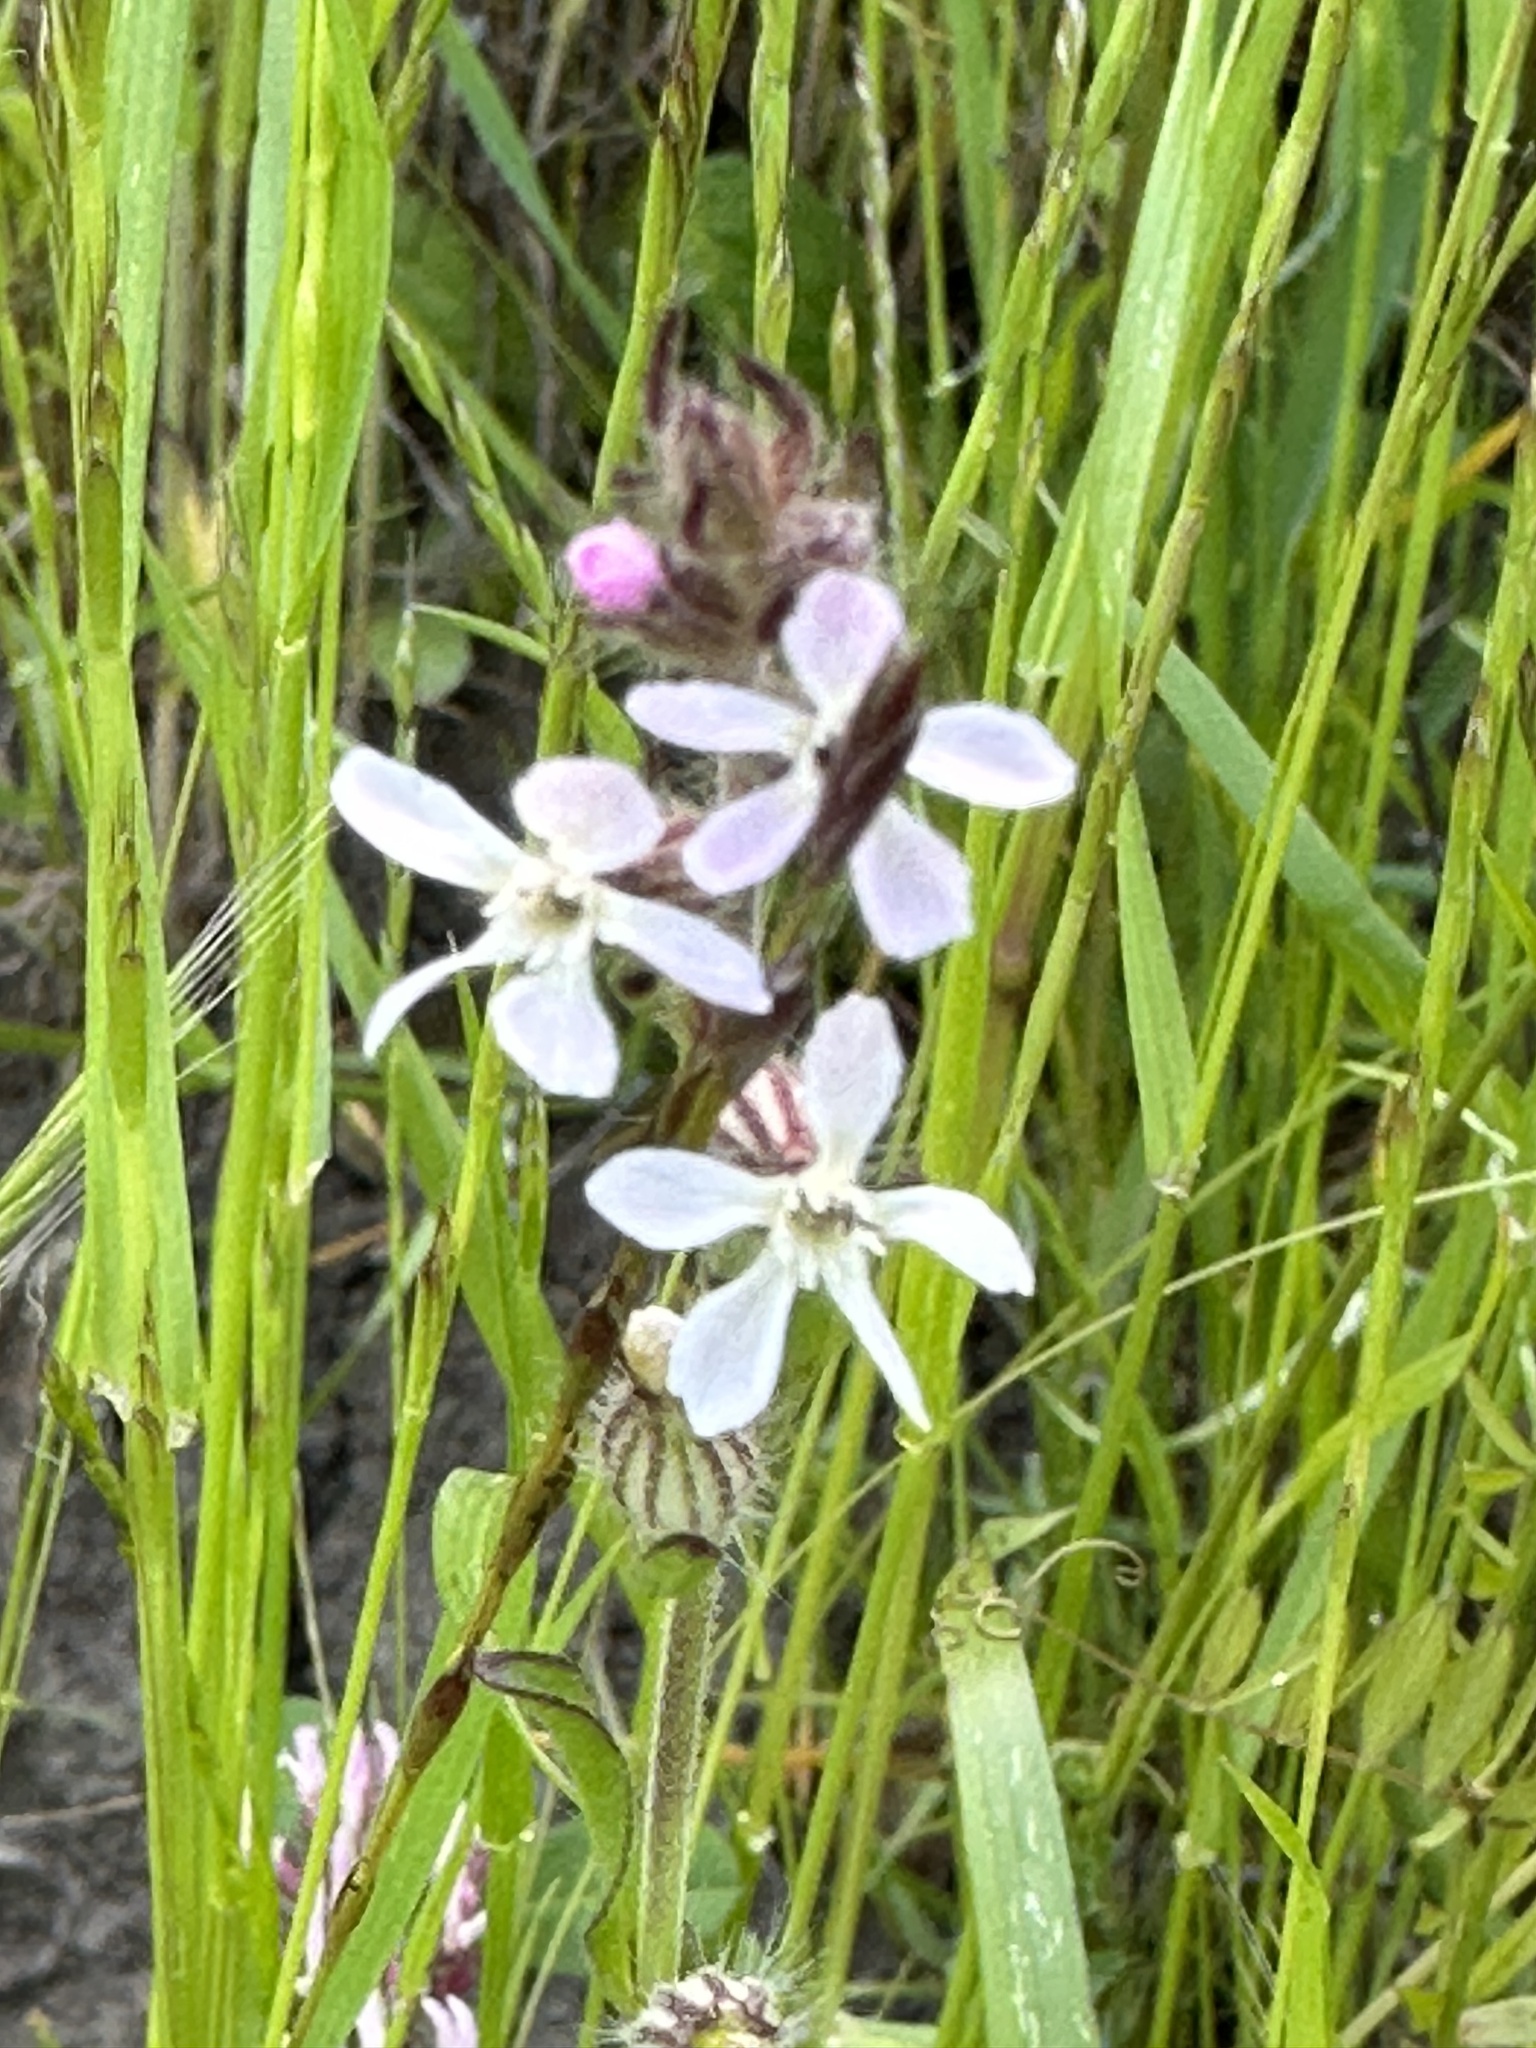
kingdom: Plantae
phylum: Tracheophyta
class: Magnoliopsida
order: Caryophyllales
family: Caryophyllaceae
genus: Silene
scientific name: Silene gallica
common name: Small-flowered catchfly
